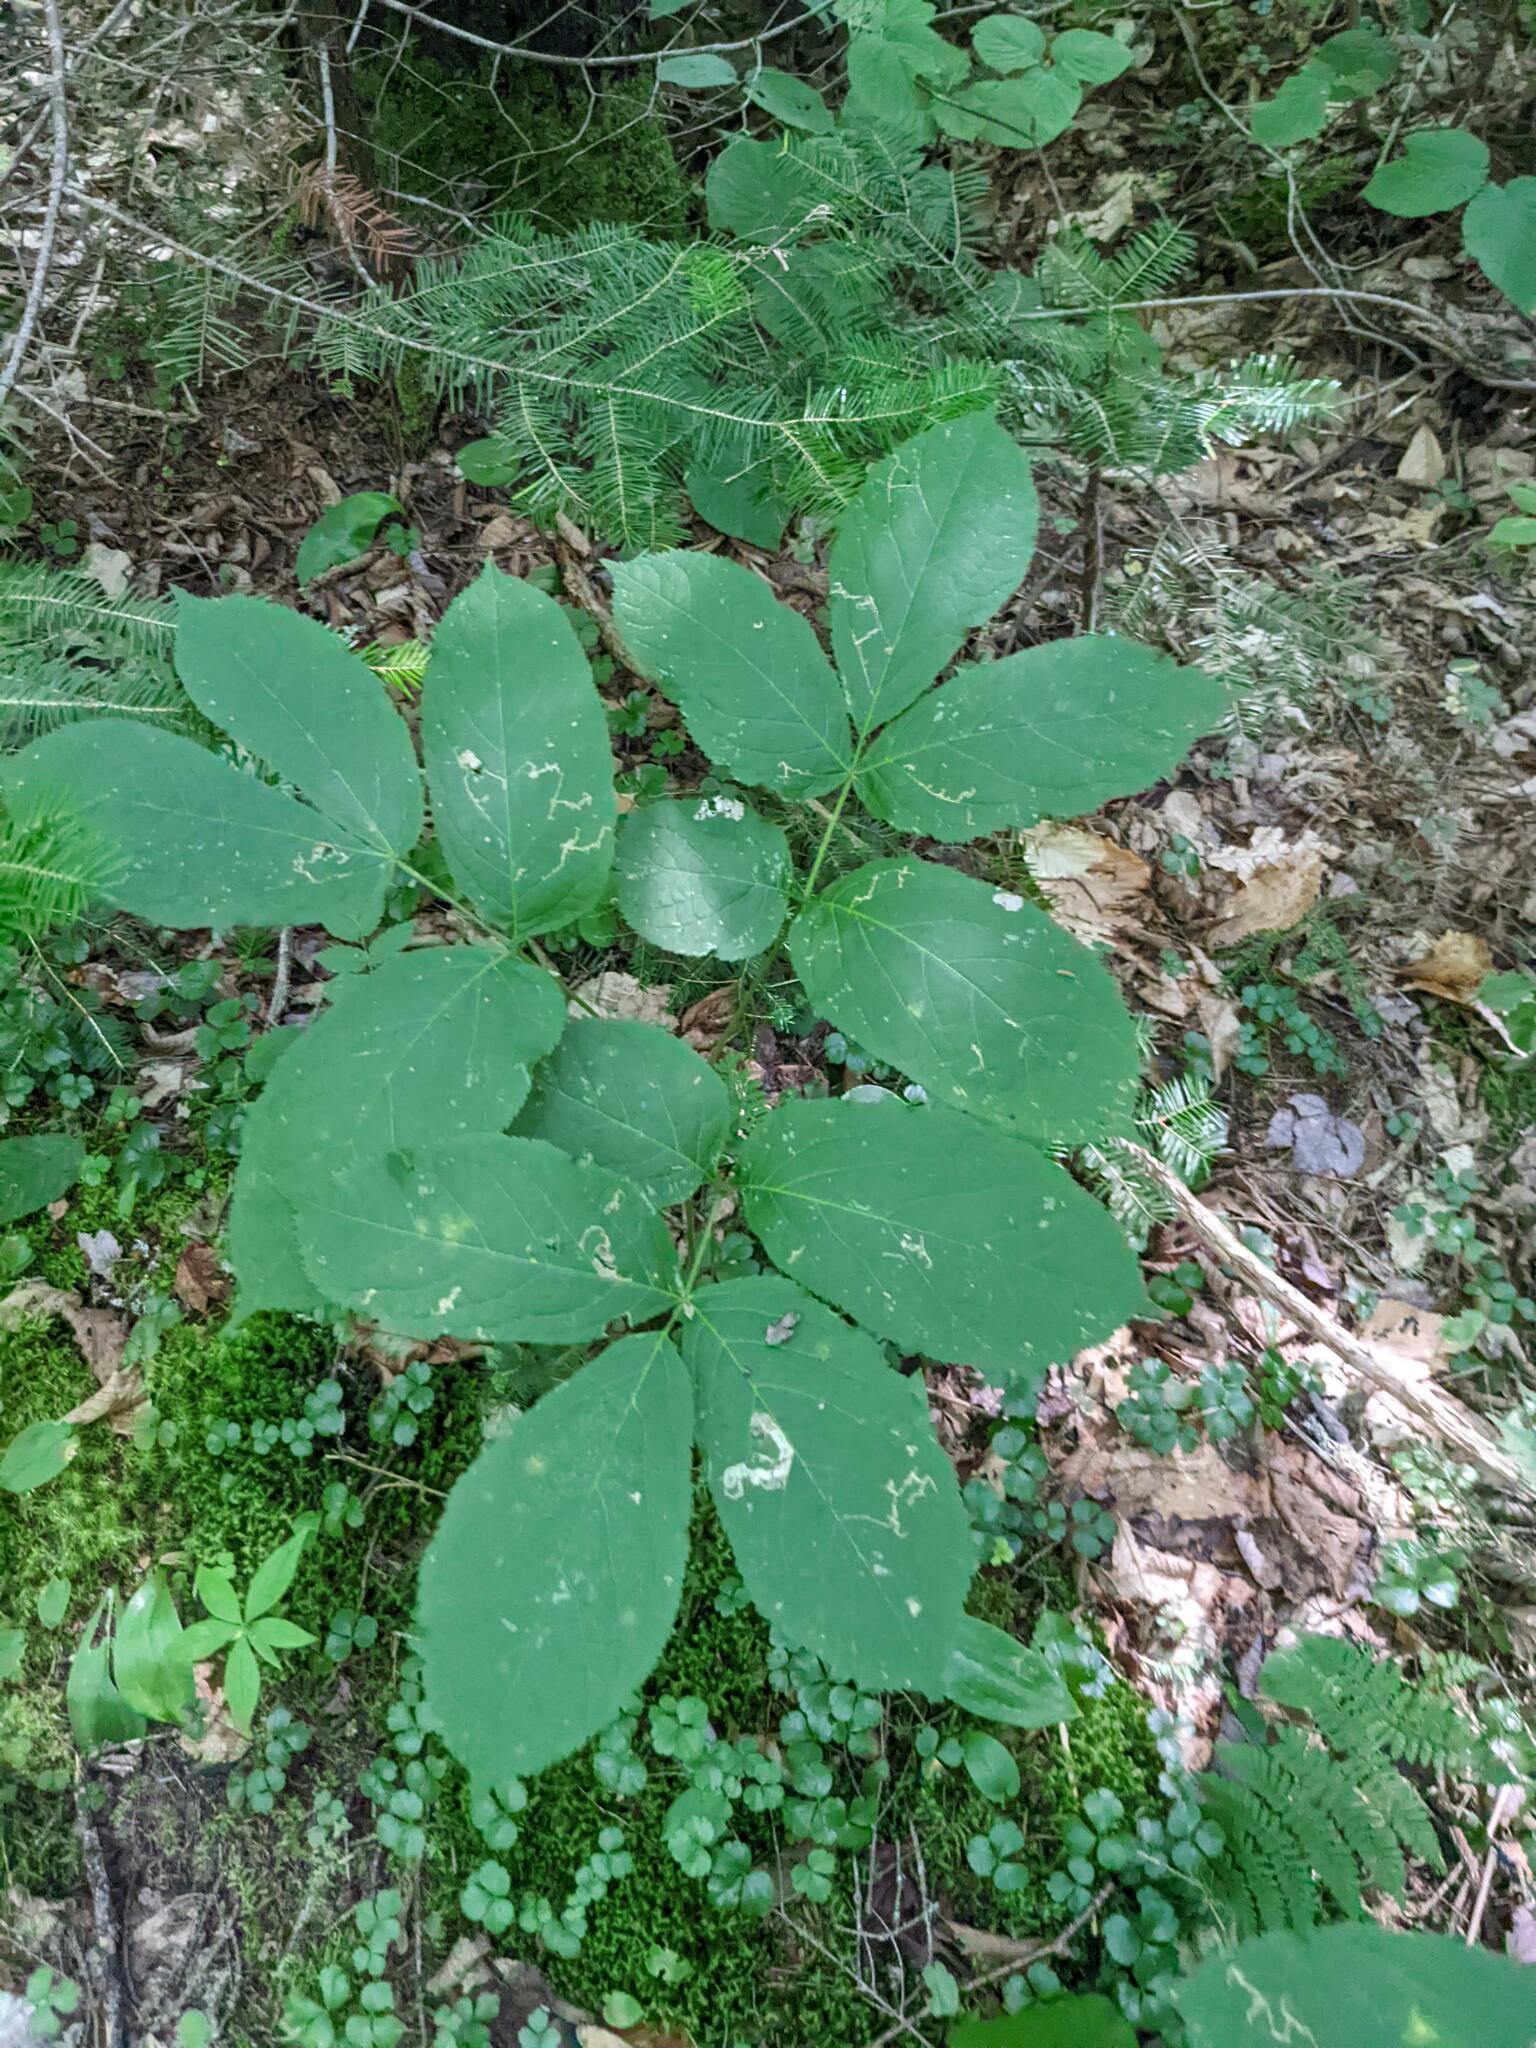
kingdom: Plantae
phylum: Tracheophyta
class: Magnoliopsida
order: Apiales
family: Araliaceae
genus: Aralia
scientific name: Aralia nudicaulis
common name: Wild sarsaparilla
